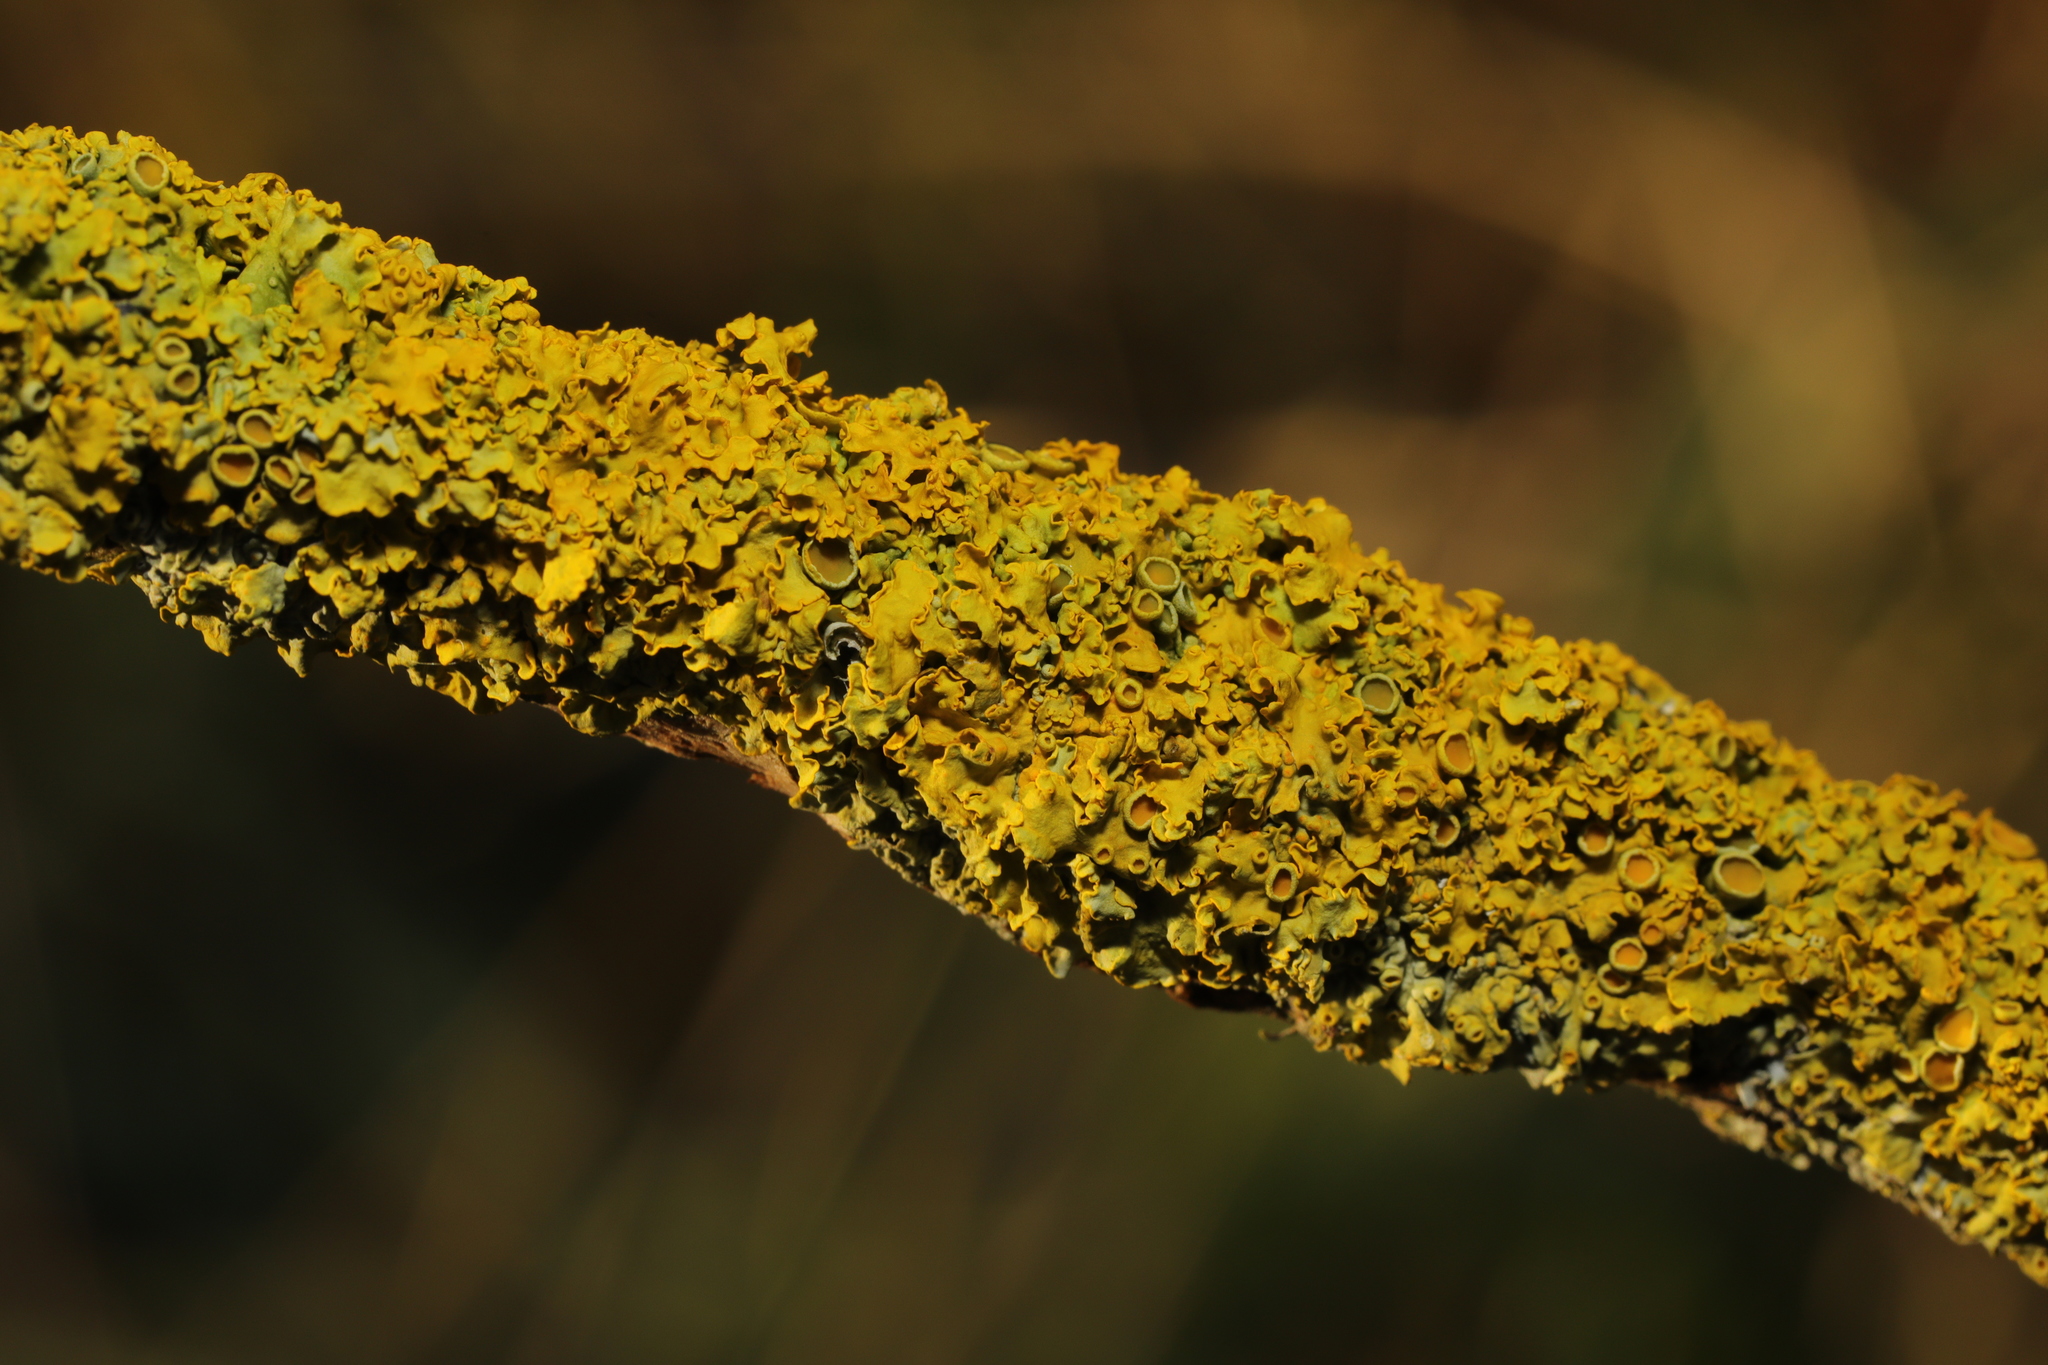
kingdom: Fungi
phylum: Ascomycota
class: Lecanoromycetes
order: Teloschistales
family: Teloschistaceae
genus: Xanthoria
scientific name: Xanthoria parietina
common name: Common orange lichen
